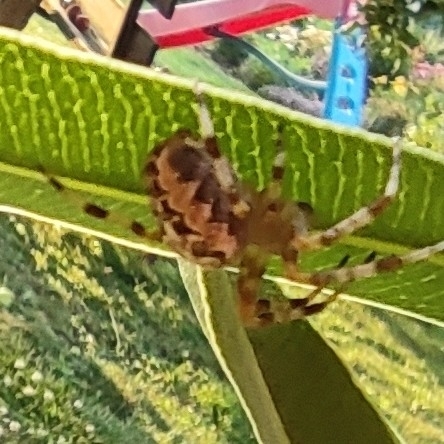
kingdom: Animalia
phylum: Arthropoda
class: Arachnida
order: Araneae
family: Araneidae
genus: Araneus
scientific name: Araneus diadematus
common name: Cross orbweaver
